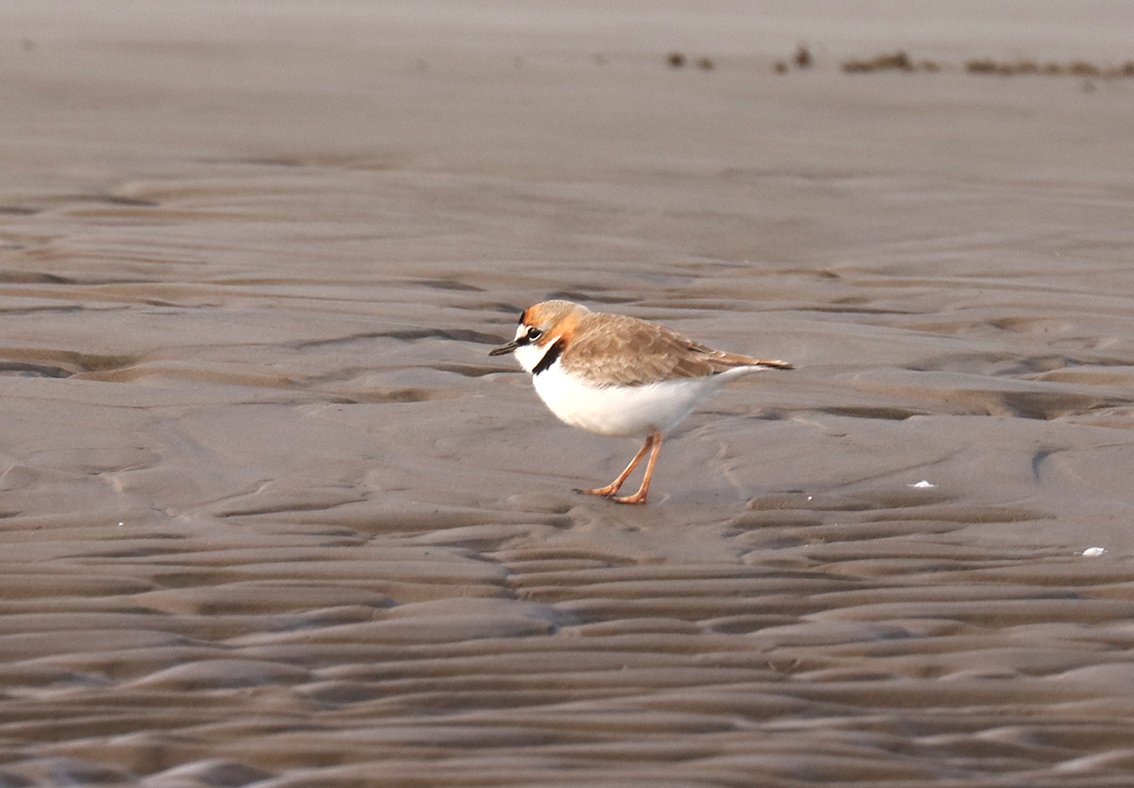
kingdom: Animalia
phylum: Chordata
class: Aves
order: Charadriiformes
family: Charadriidae
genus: Anarhynchus
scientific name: Anarhynchus
